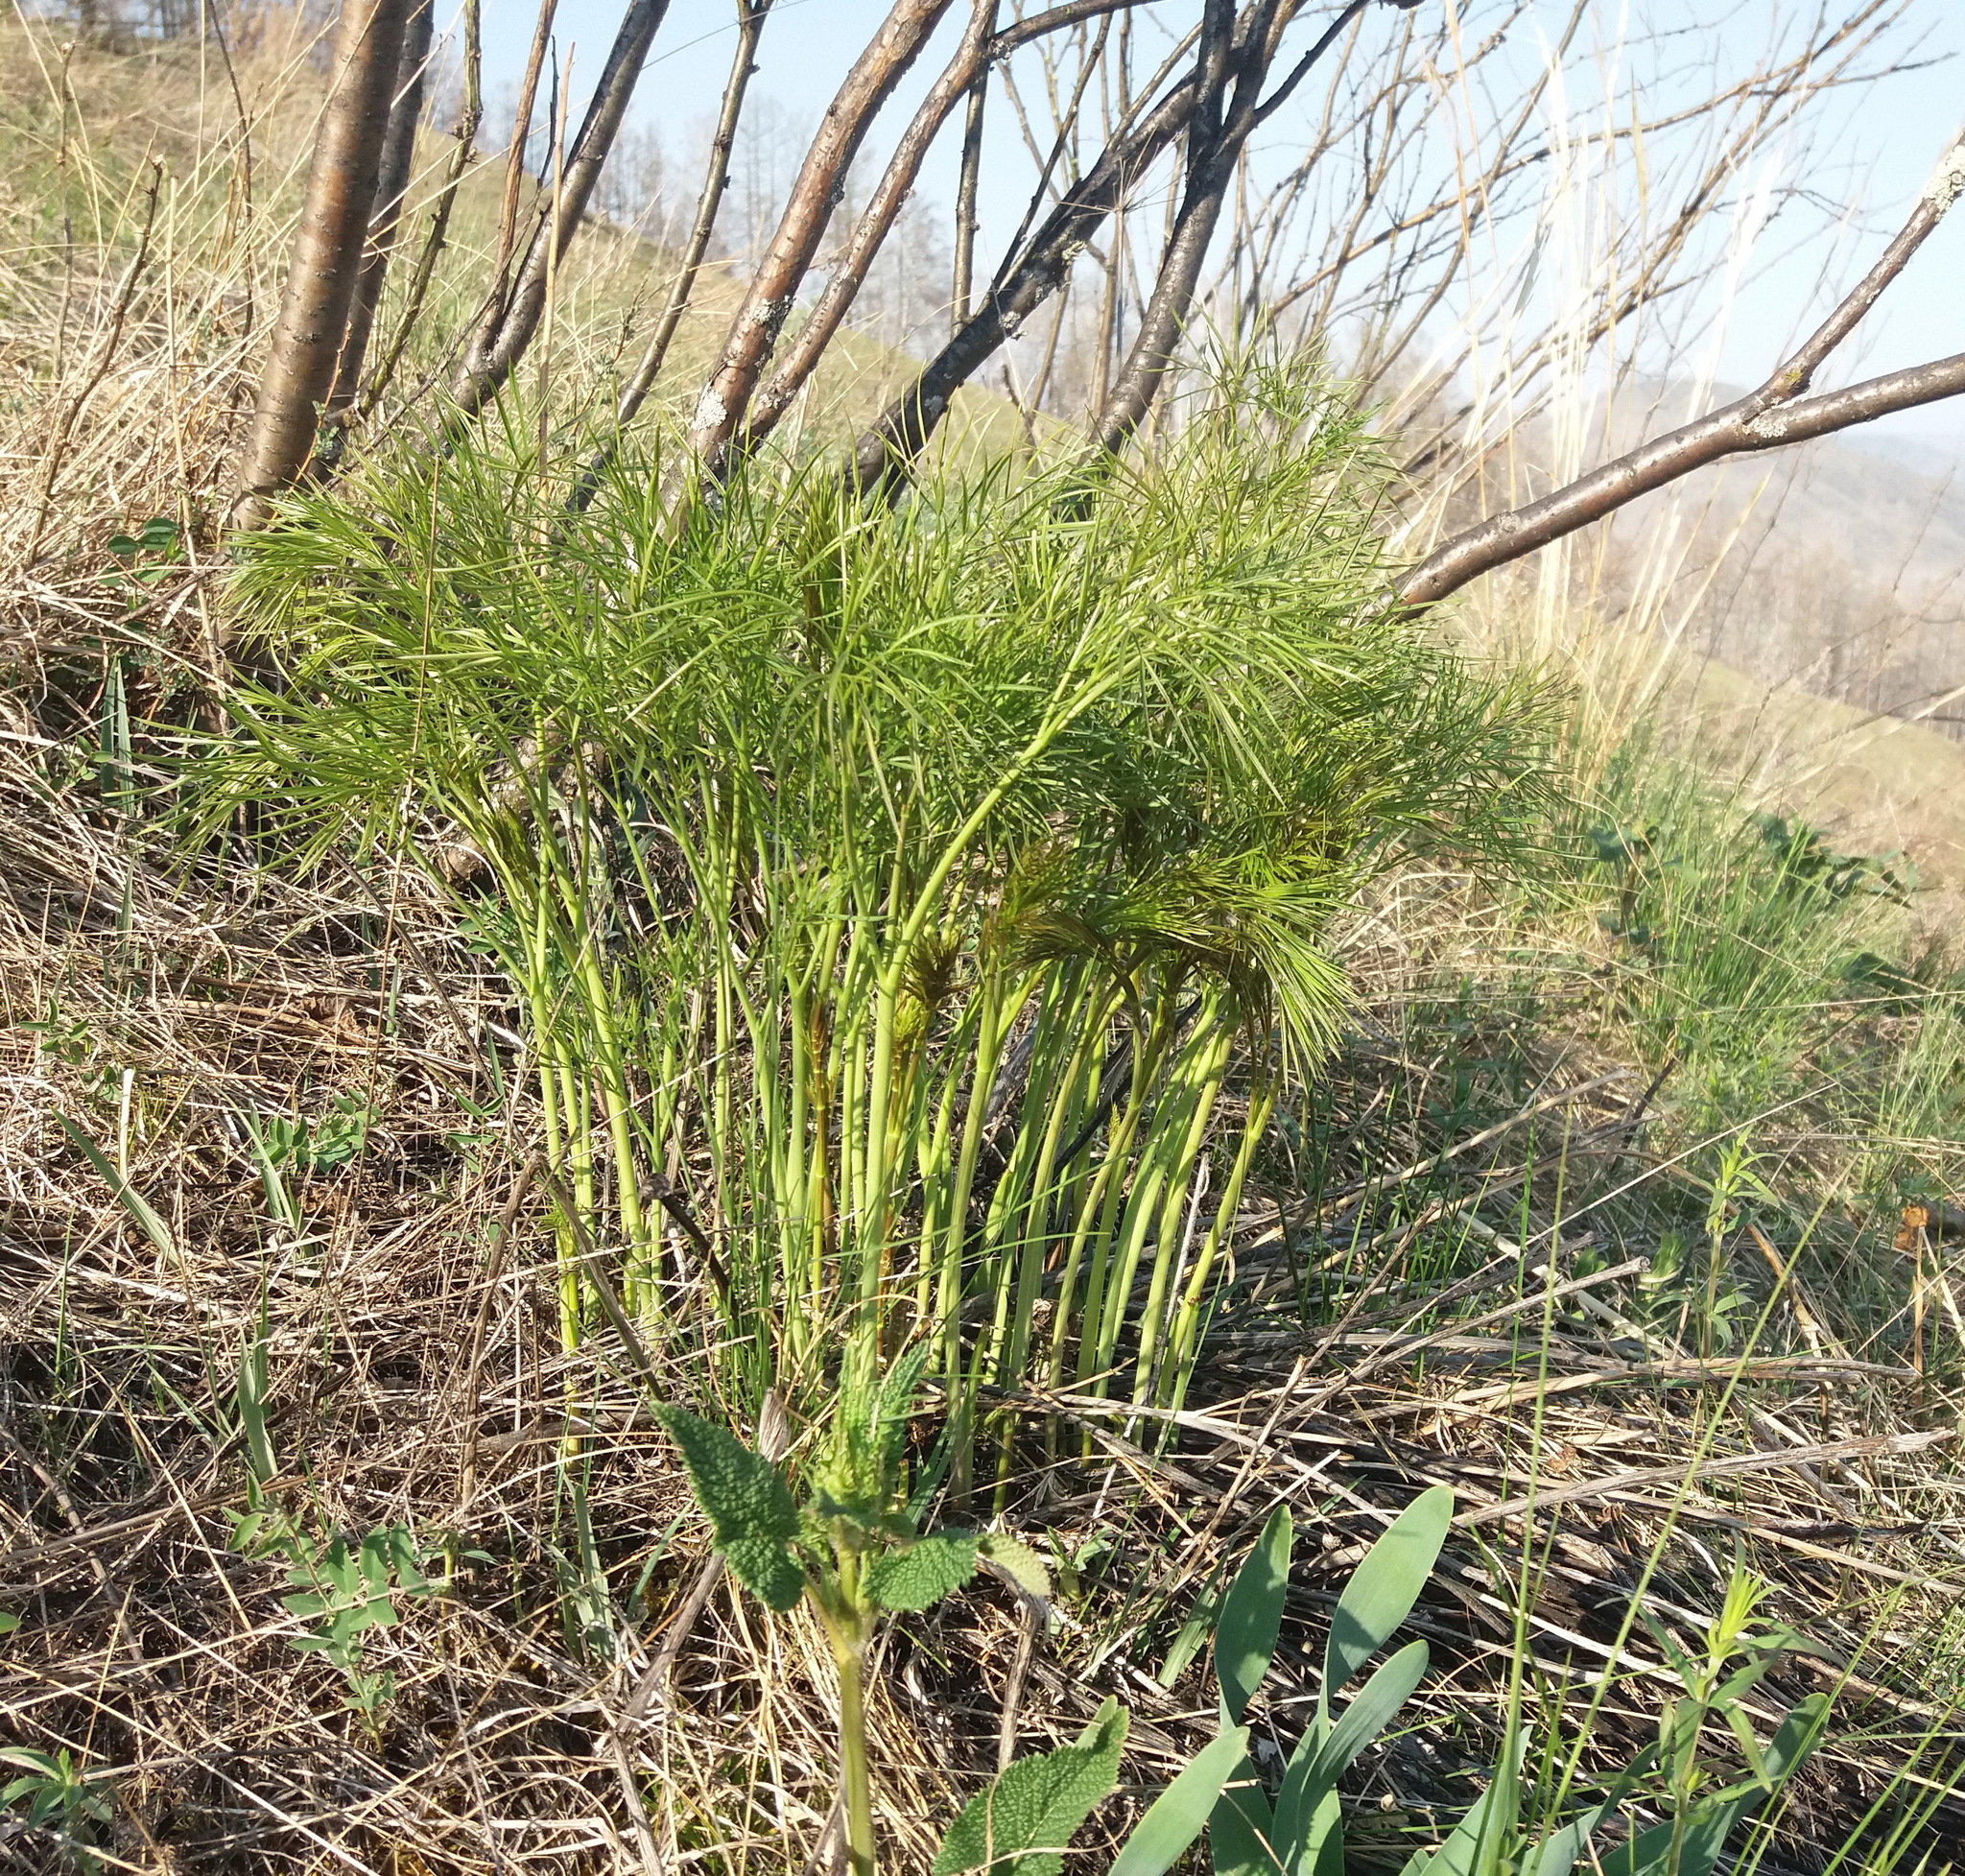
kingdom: Plantae
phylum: Tracheophyta
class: Magnoliopsida
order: Apiales
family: Apiaceae
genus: Peucedanum
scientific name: Peucedanum morisonii
